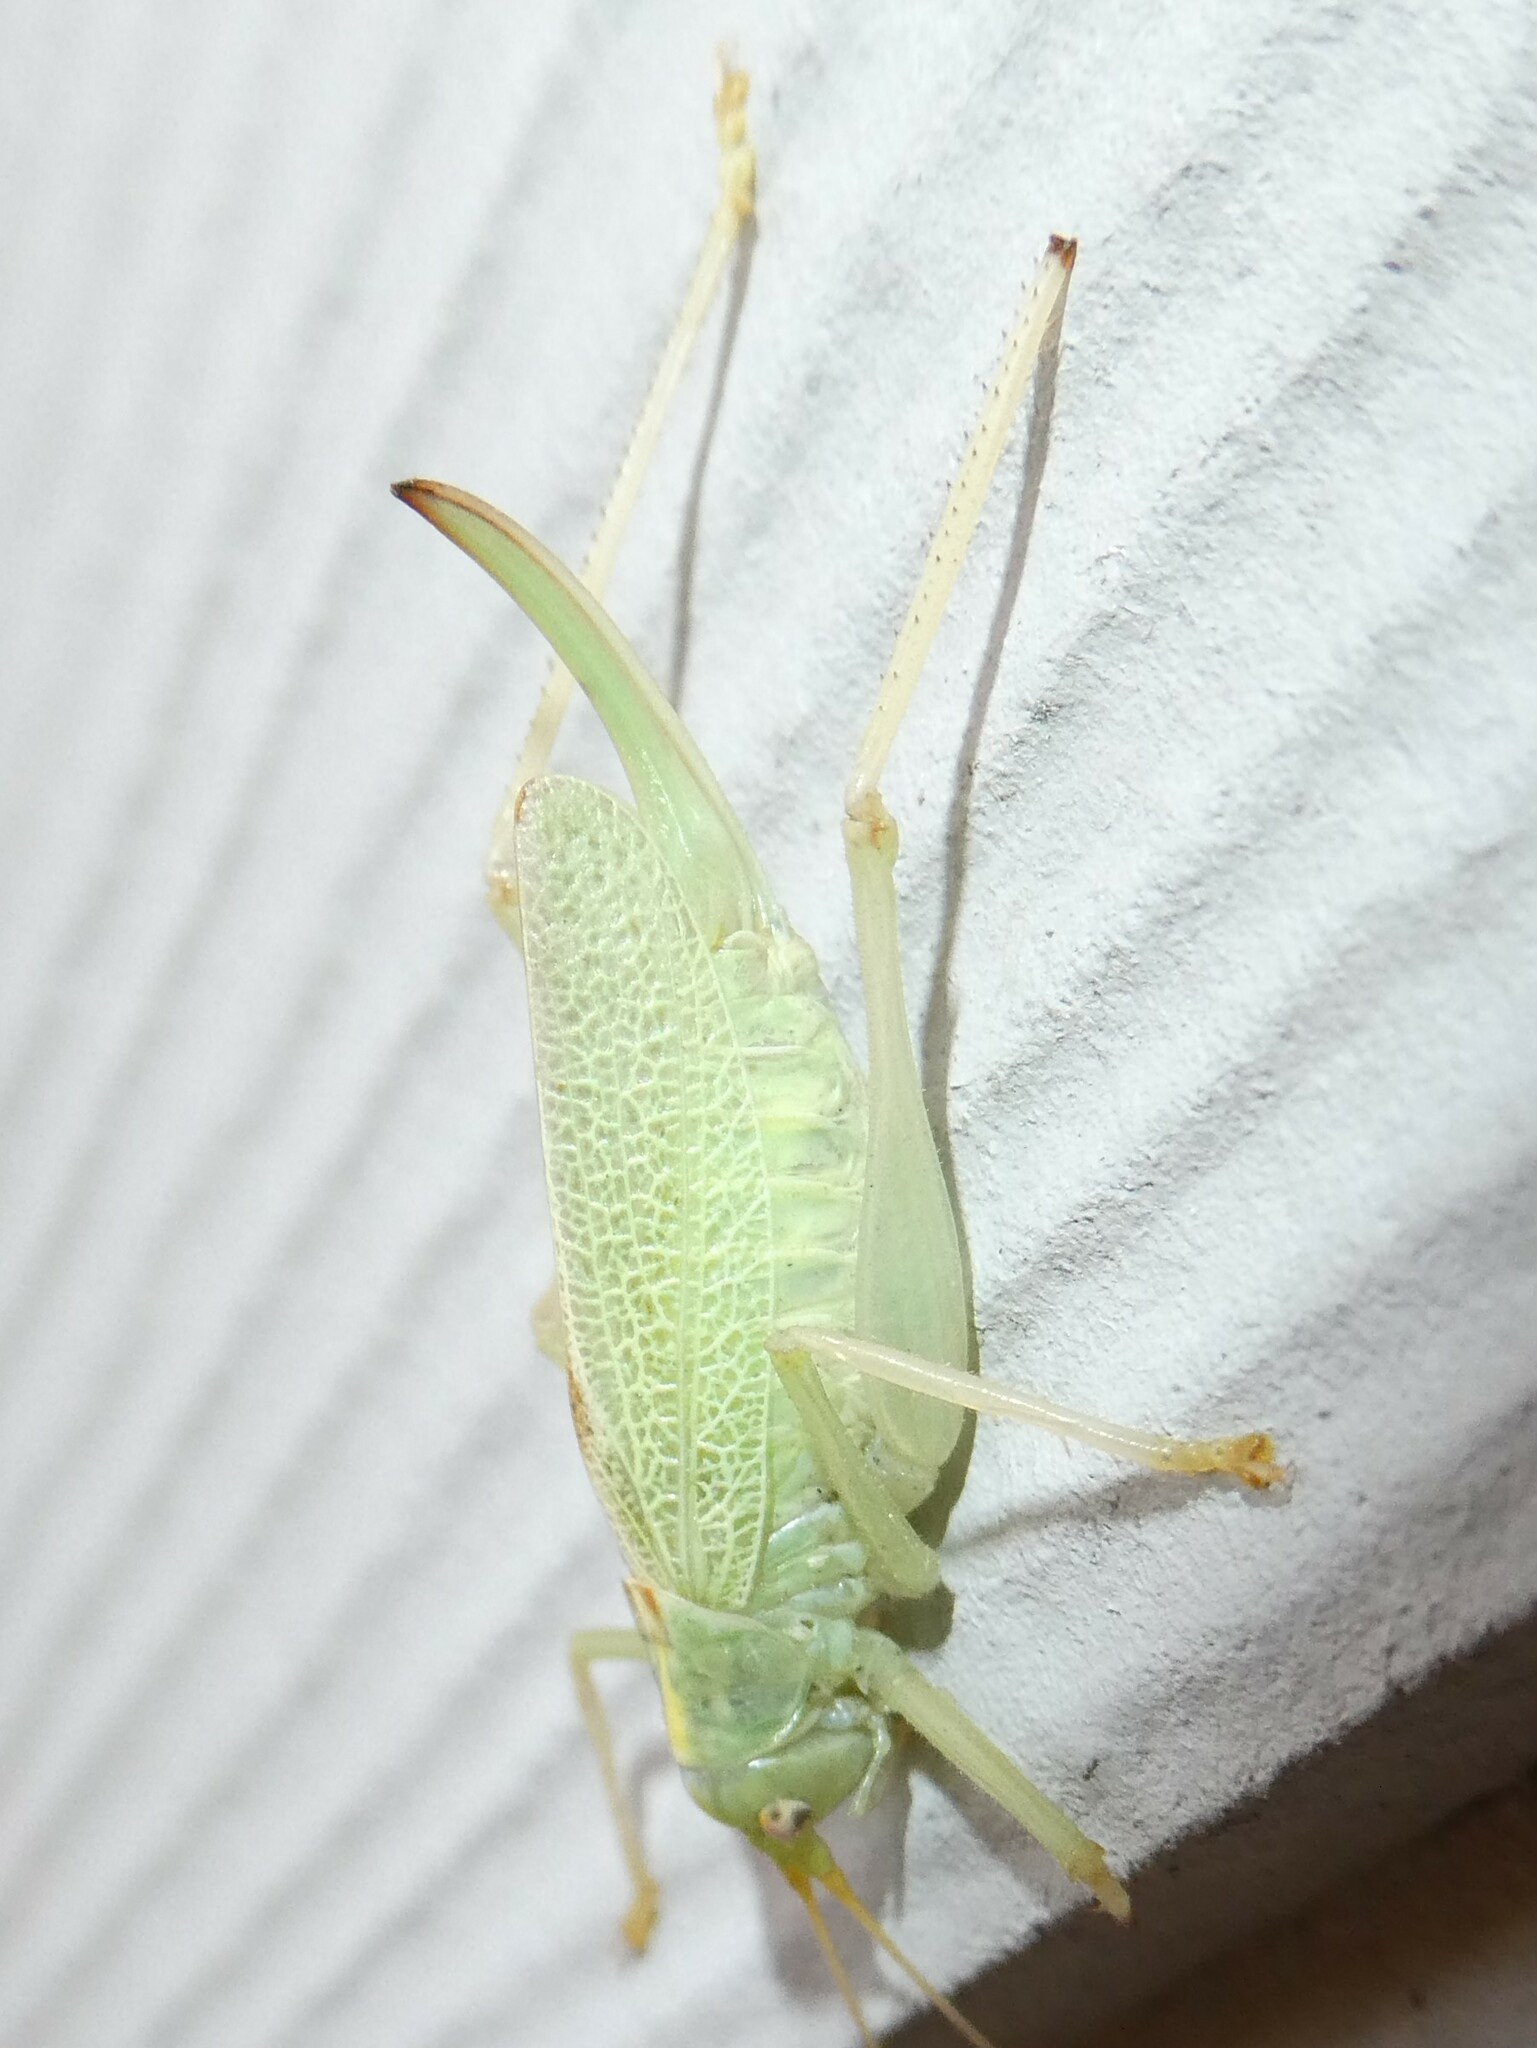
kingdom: Animalia
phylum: Arthropoda
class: Insecta
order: Orthoptera
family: Tettigoniidae
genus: Meconema
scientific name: Meconema thalassinum
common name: Oak bush-cricket
